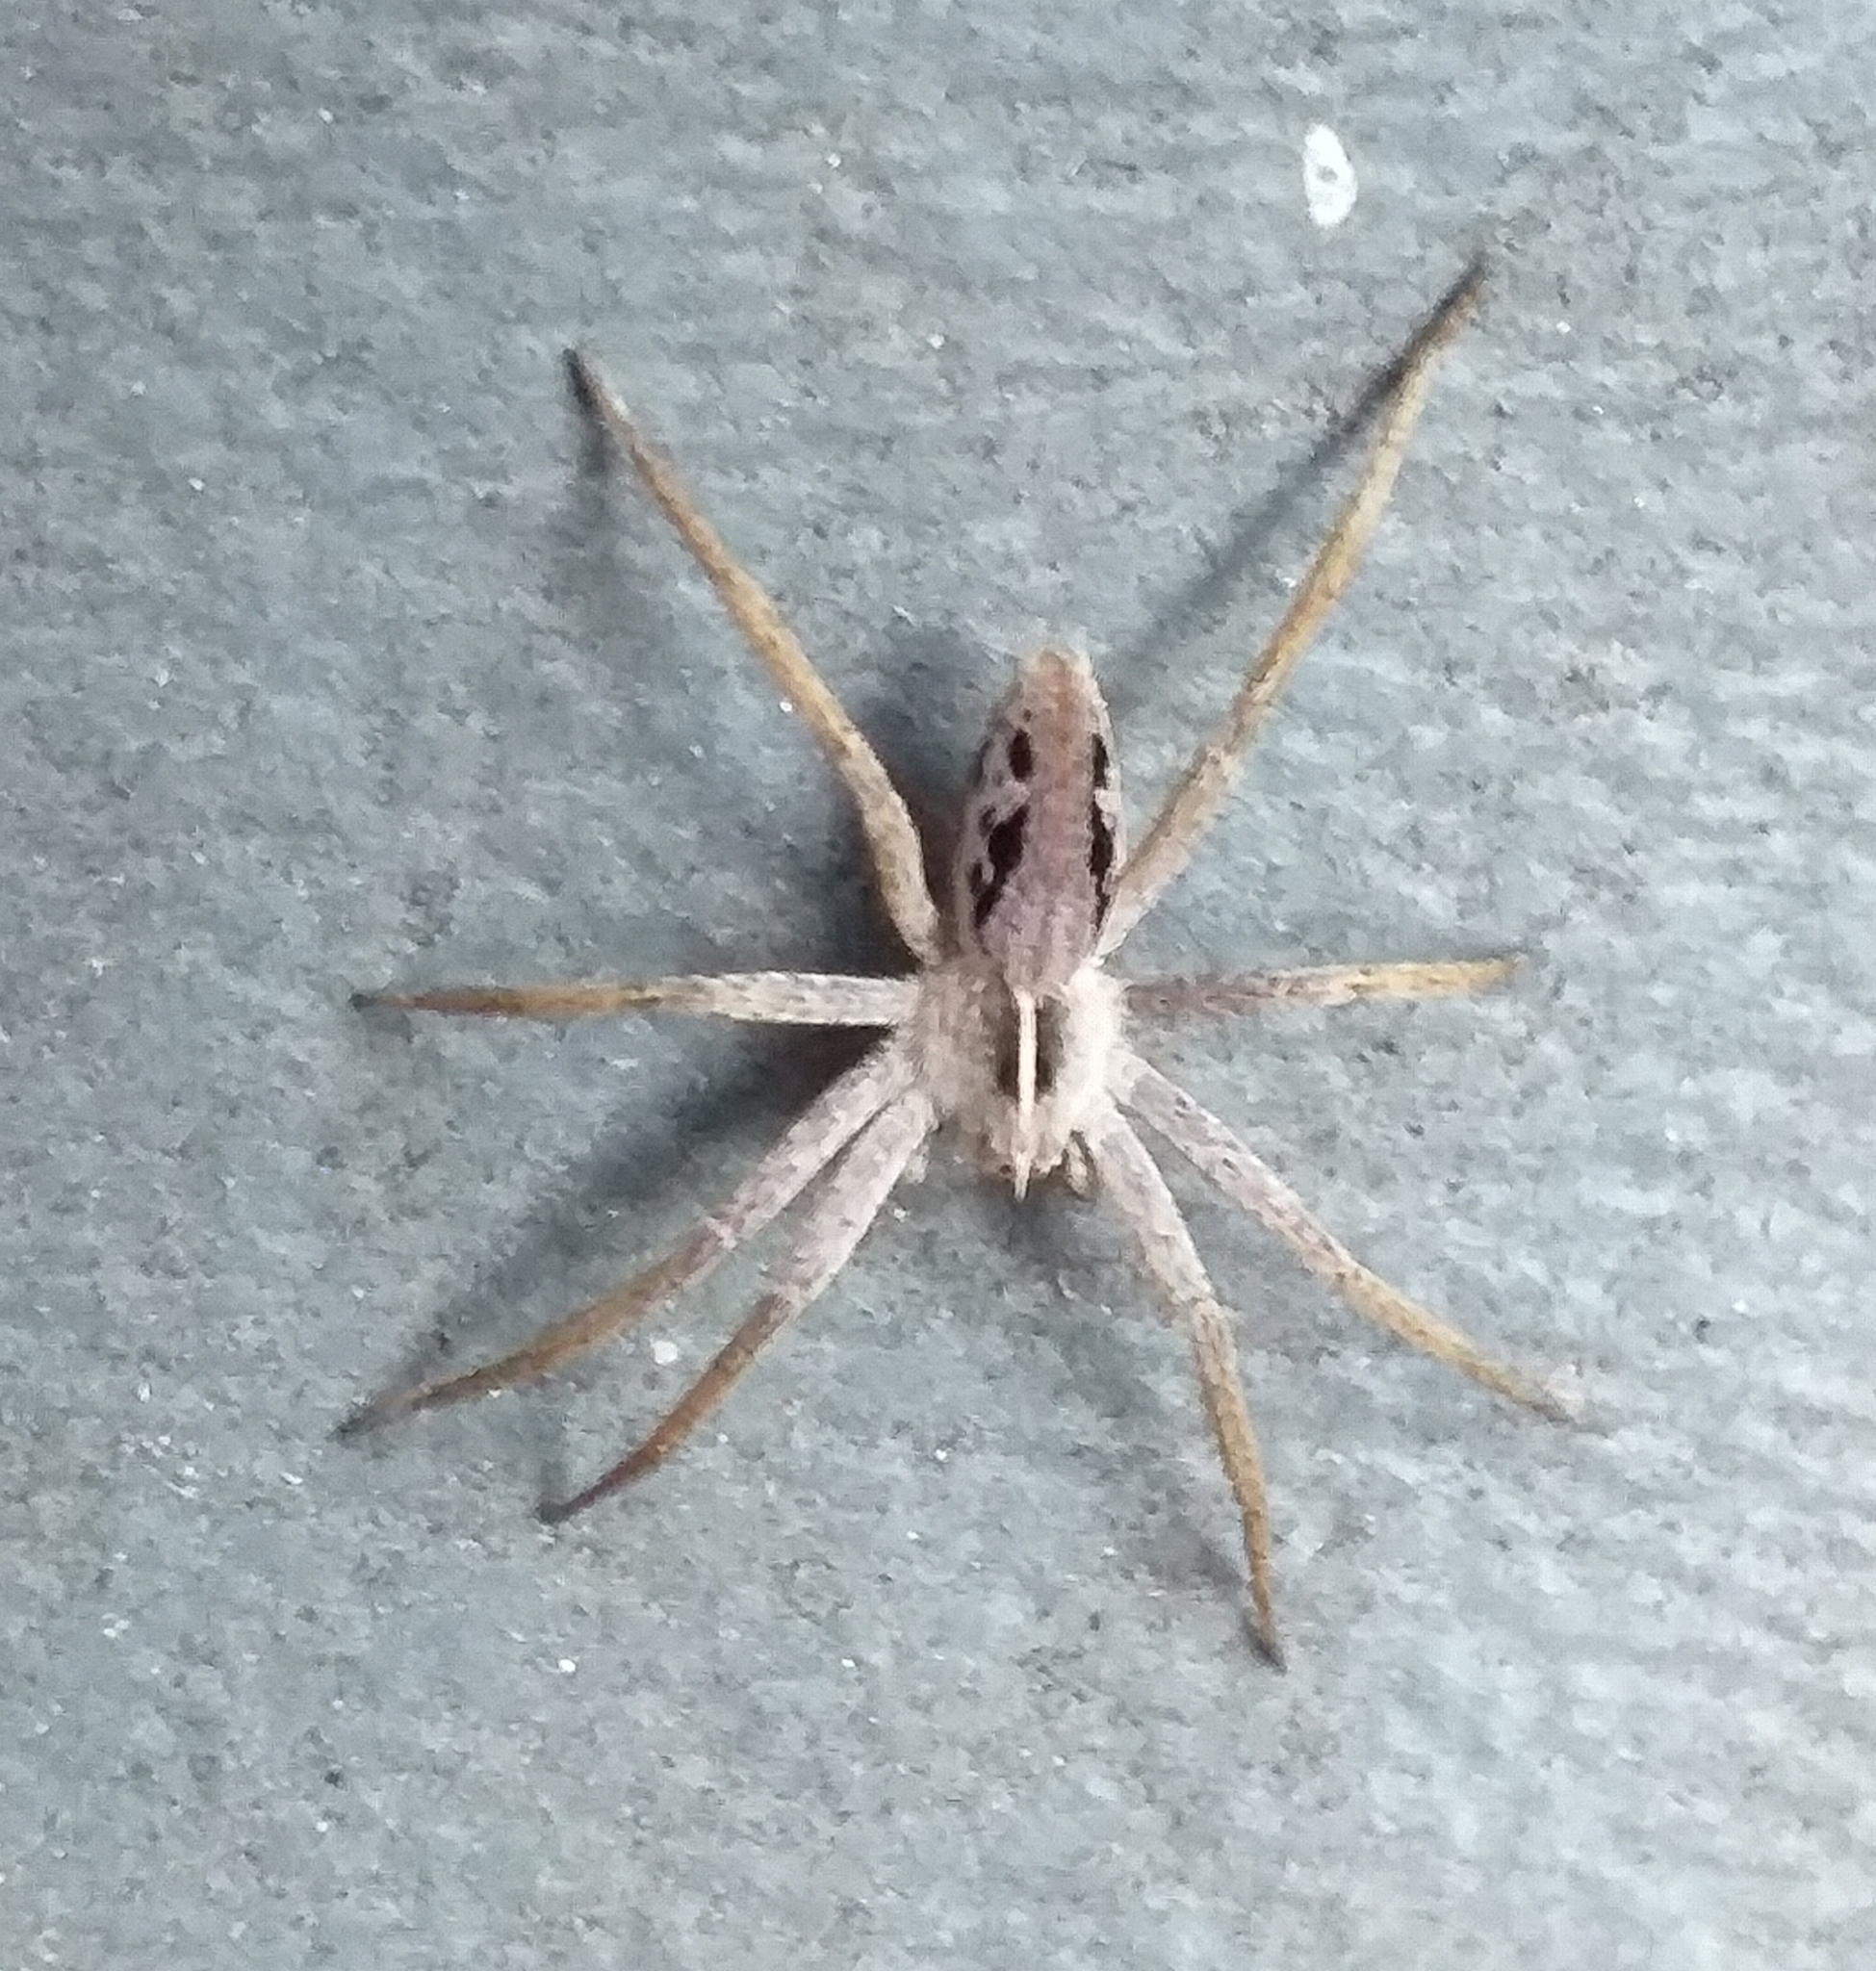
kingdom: Animalia
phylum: Arthropoda
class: Arachnida
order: Araneae
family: Pisauridae
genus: Pisaura
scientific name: Pisaura mirabilis
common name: Tent spider
